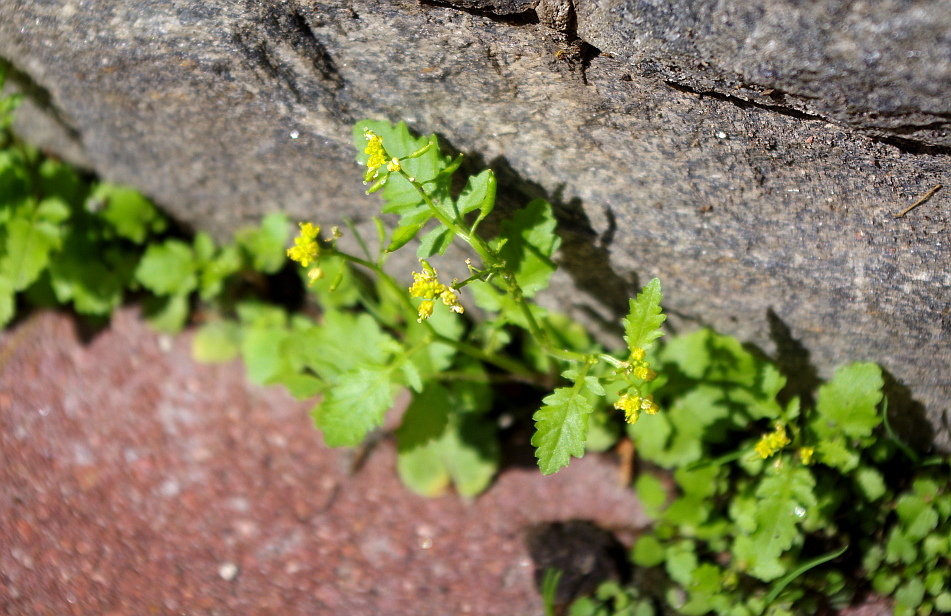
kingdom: Plantae
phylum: Tracheophyta
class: Magnoliopsida
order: Brassicales
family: Brassicaceae
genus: Rorippa
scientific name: Rorippa palustris
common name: Marsh yellow-cress
